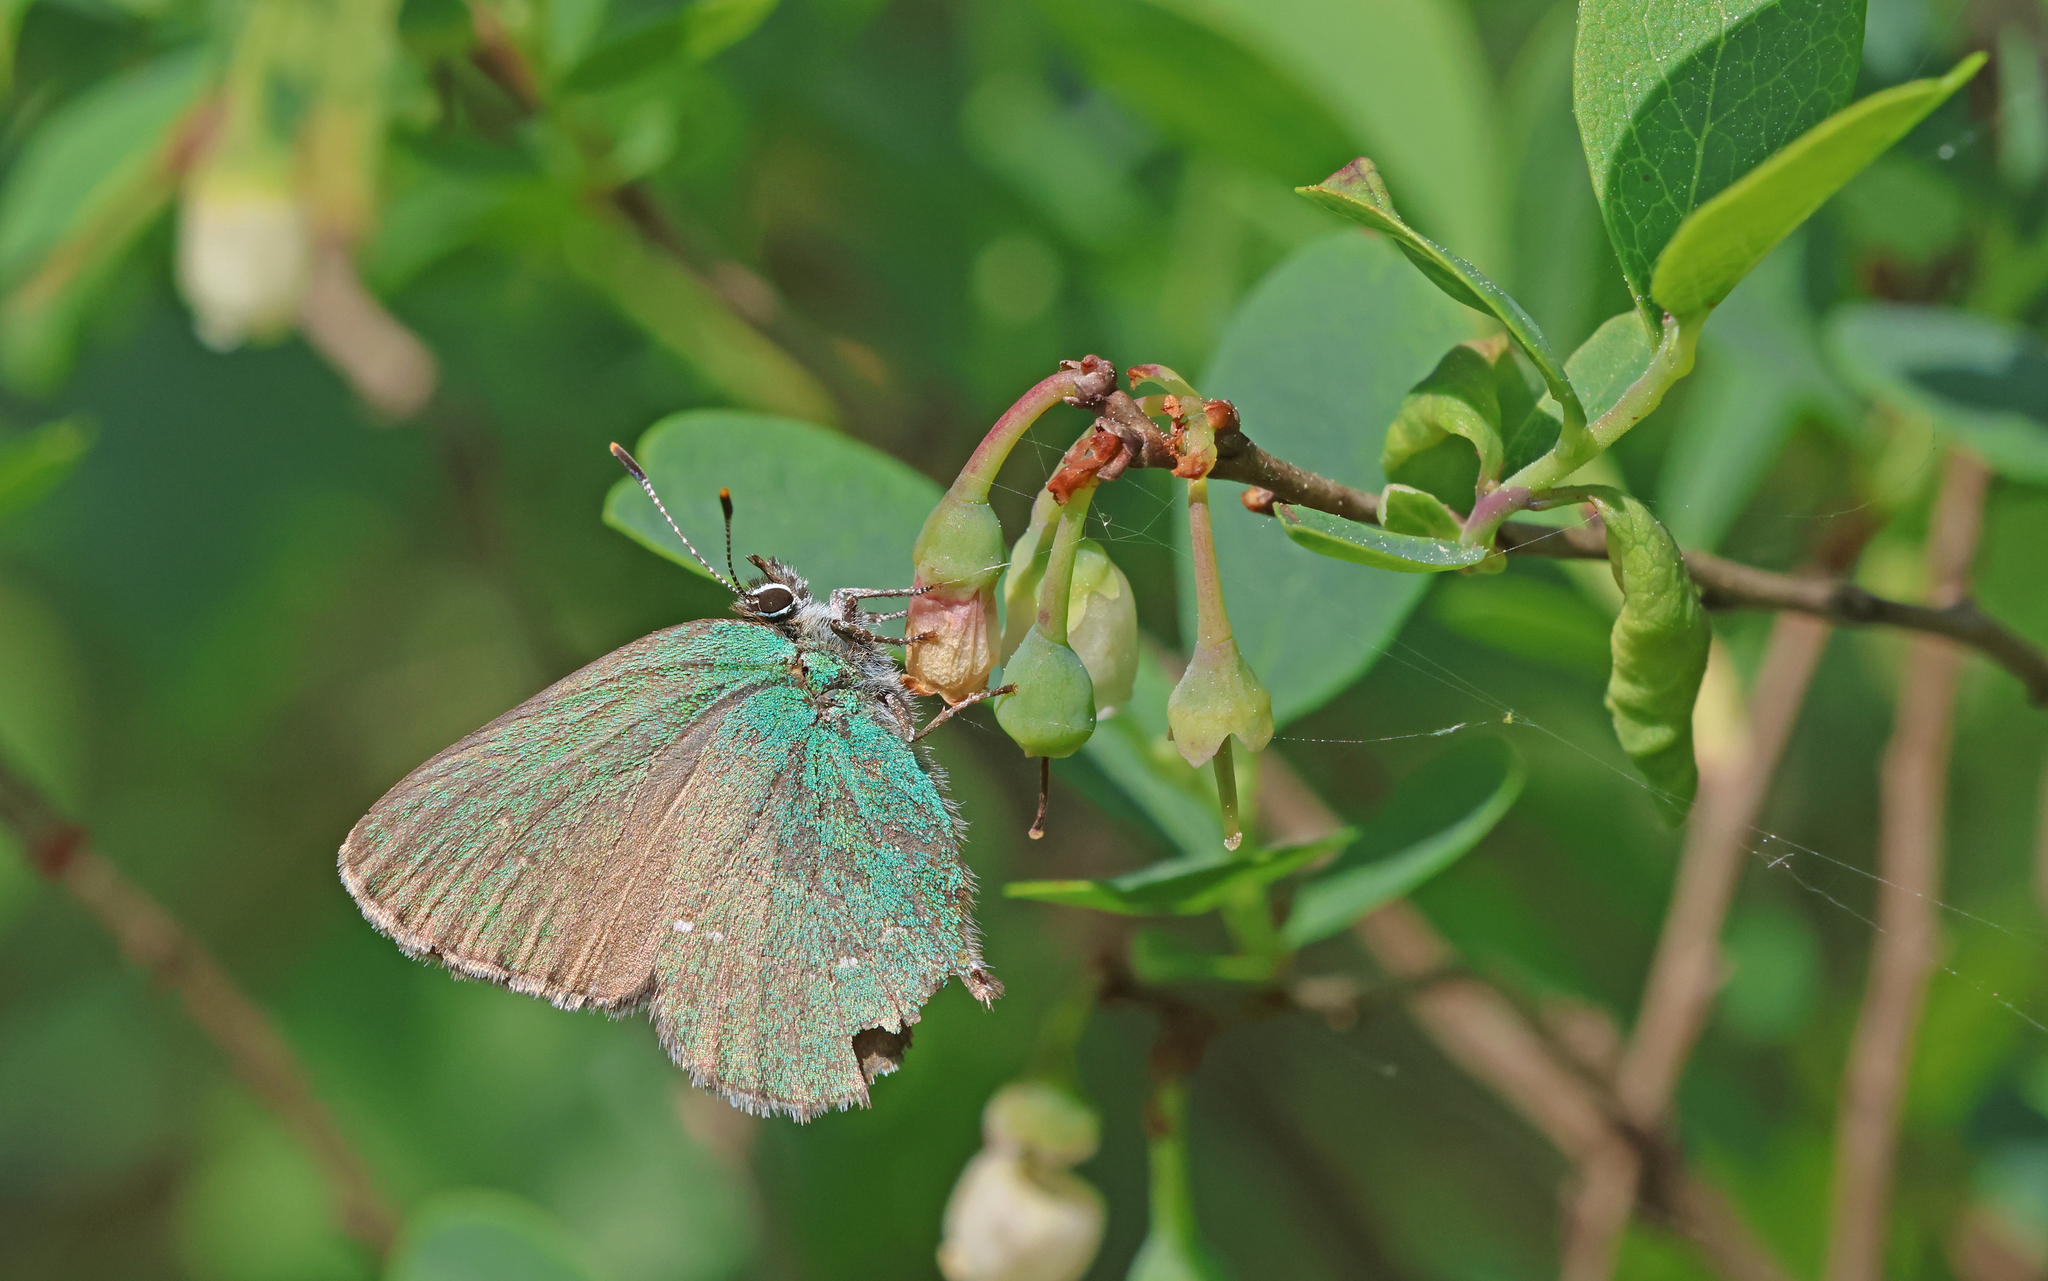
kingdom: Animalia
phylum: Arthropoda
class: Insecta
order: Lepidoptera
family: Lycaenidae
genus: Callophrys
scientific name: Callophrys rubi
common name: Green hairstreak
